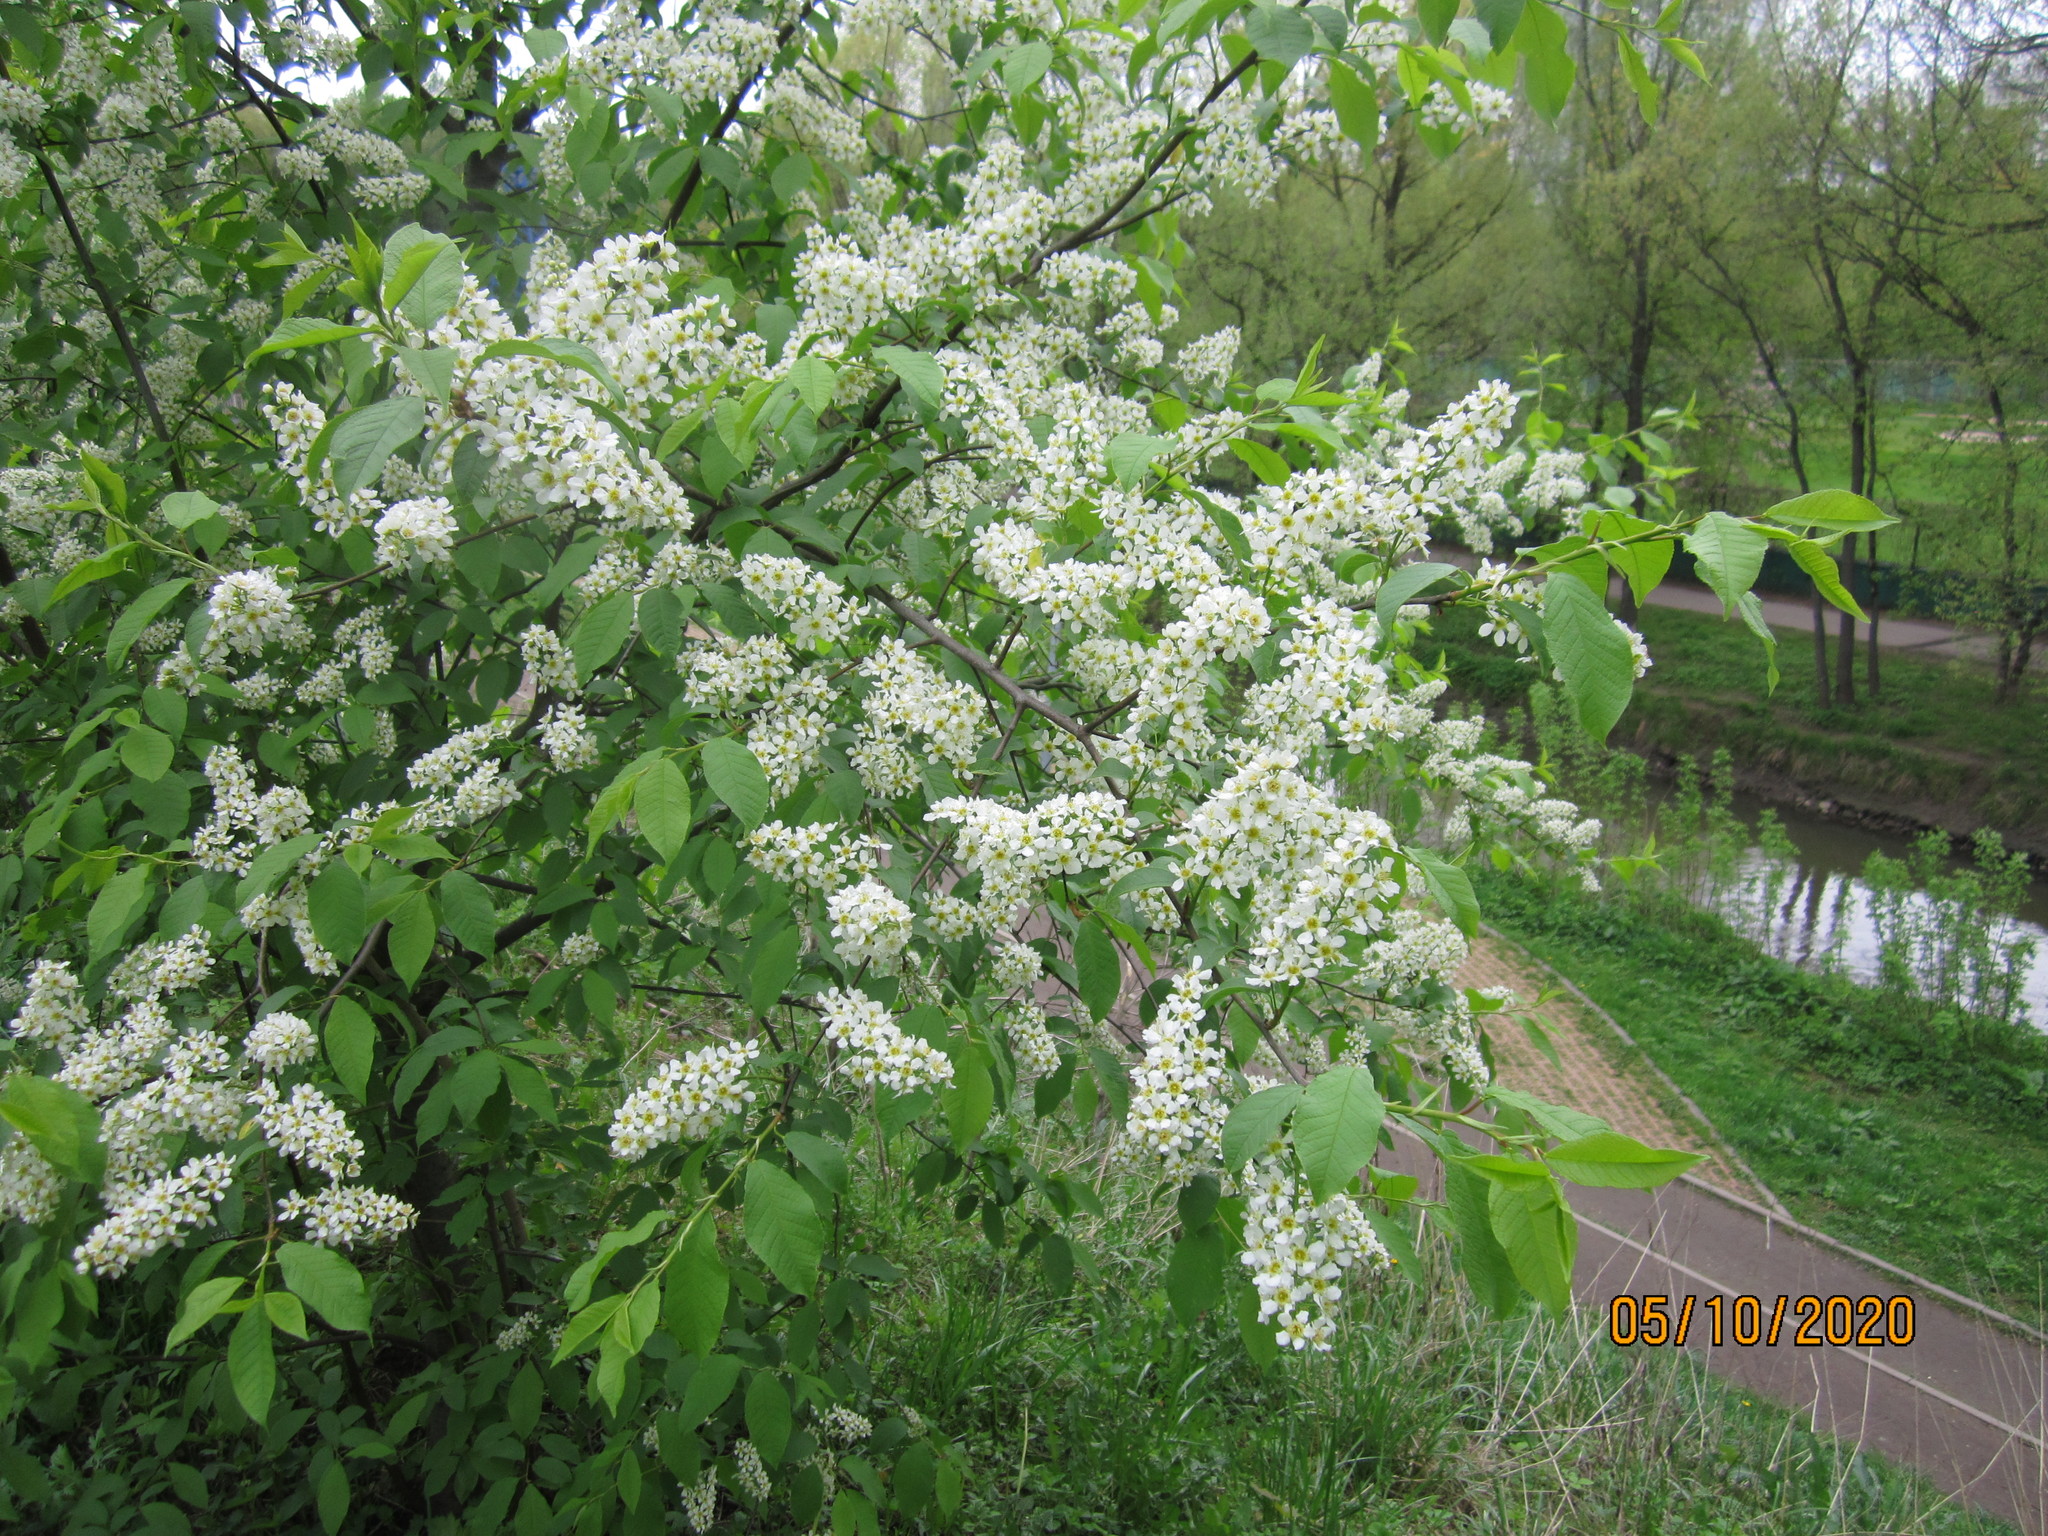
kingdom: Plantae
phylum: Tracheophyta
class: Magnoliopsida
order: Rosales
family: Rosaceae
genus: Prunus
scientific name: Prunus padus
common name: Bird cherry
